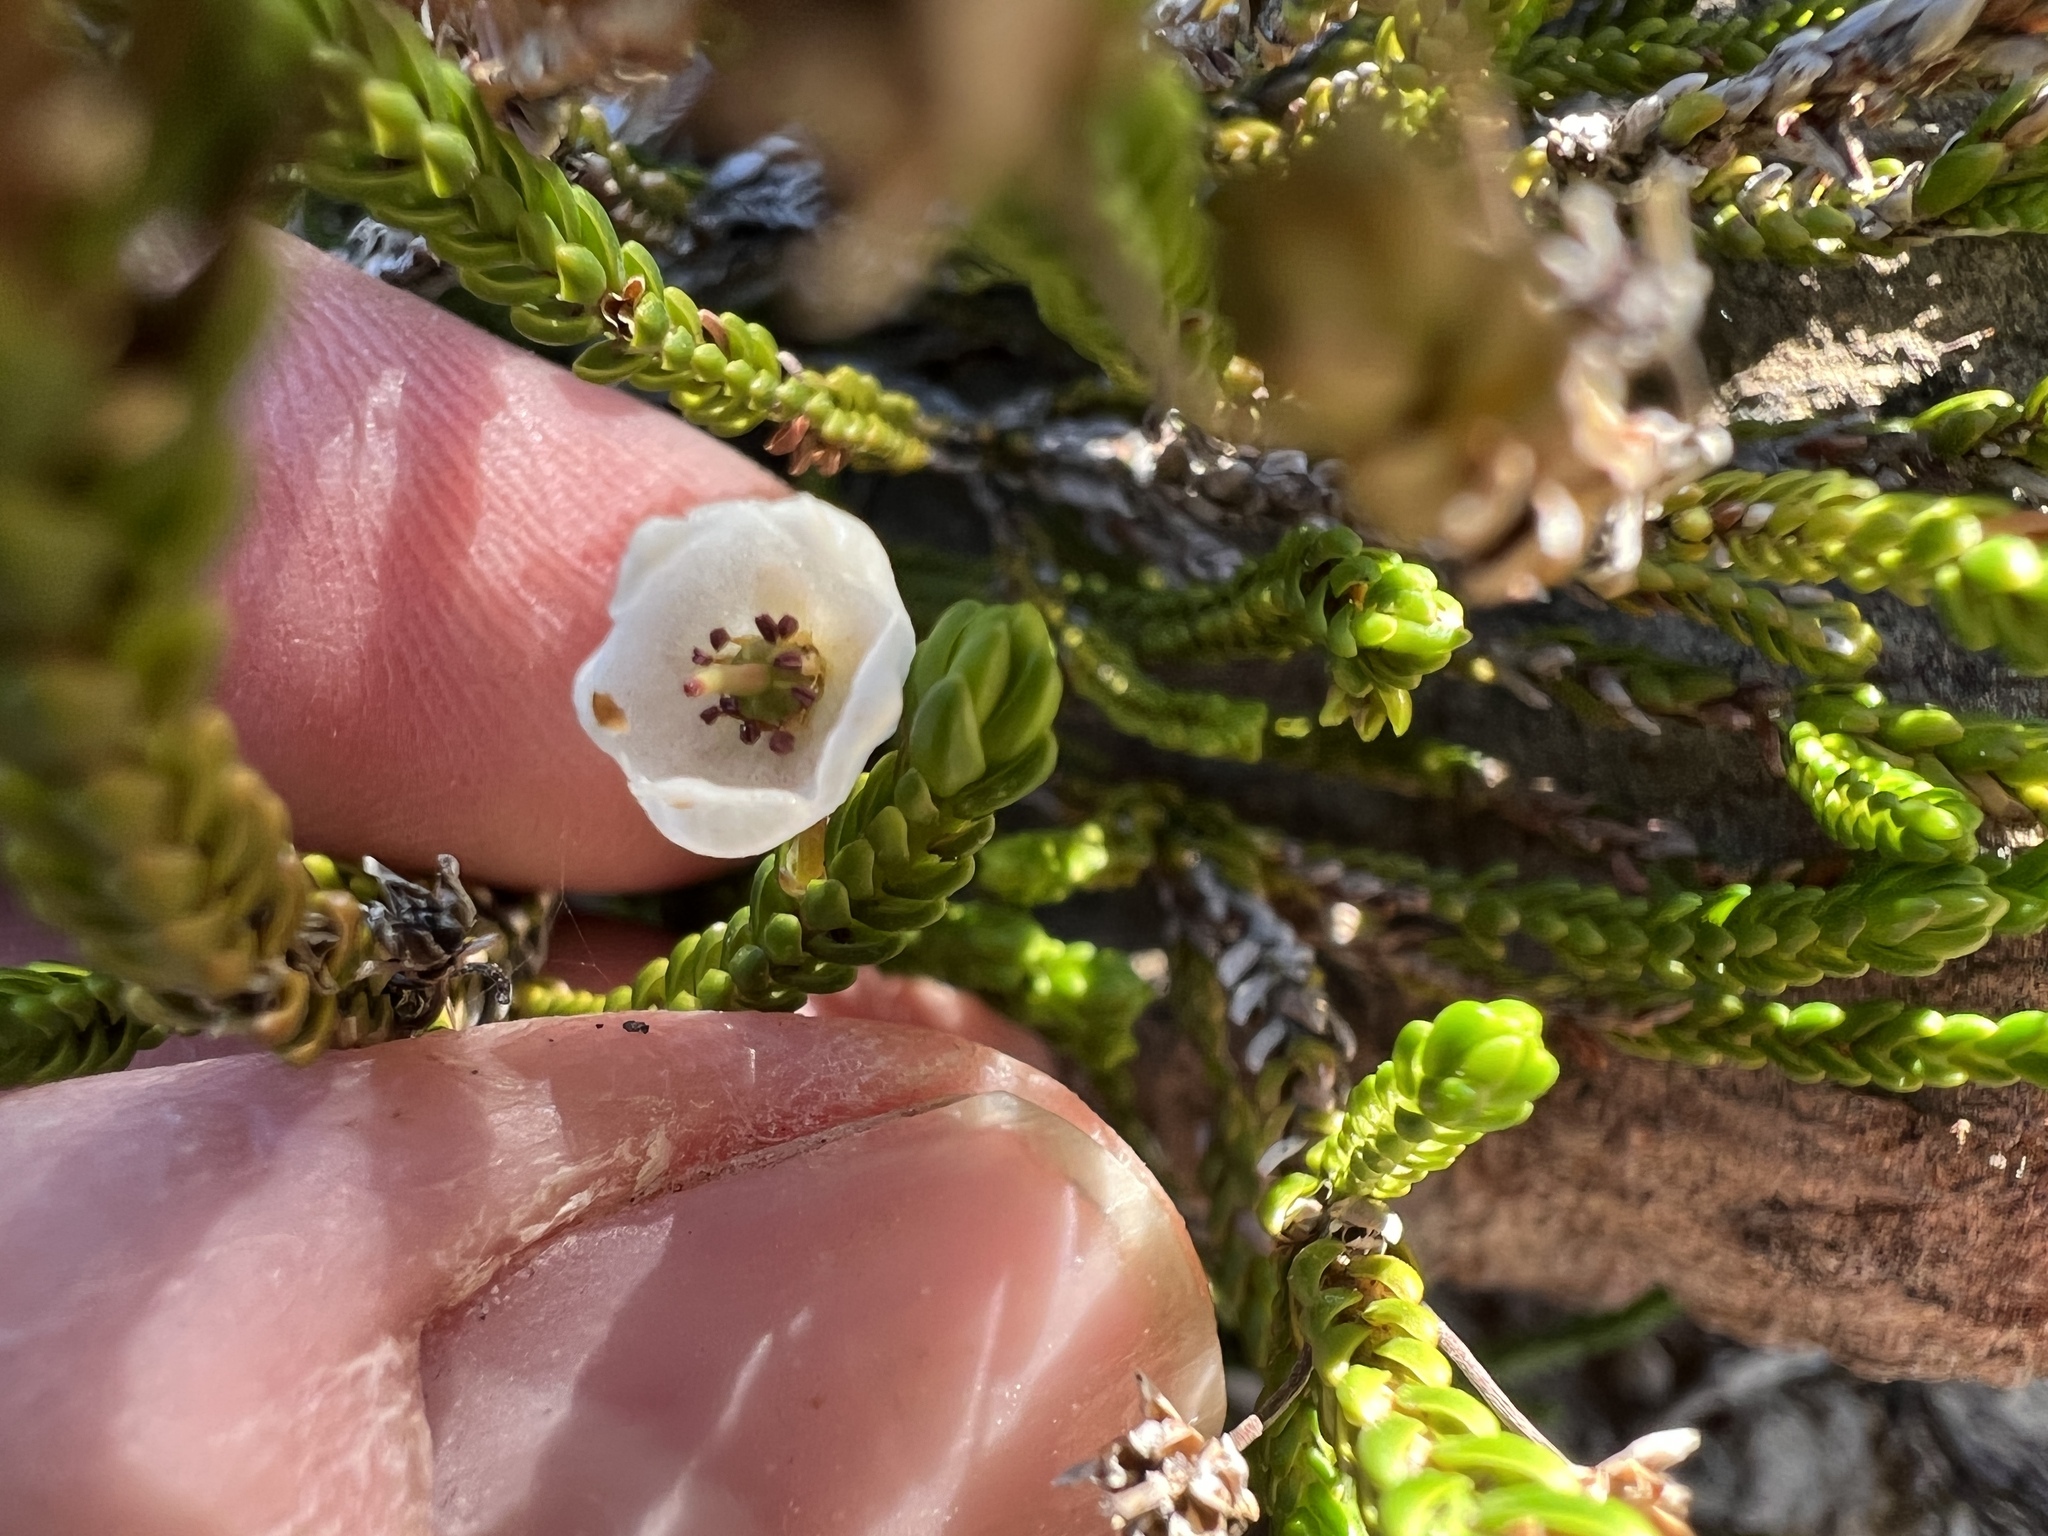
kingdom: Plantae
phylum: Tracheophyta
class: Magnoliopsida
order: Ericales
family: Ericaceae
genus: Cassiope
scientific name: Cassiope mertensiana
